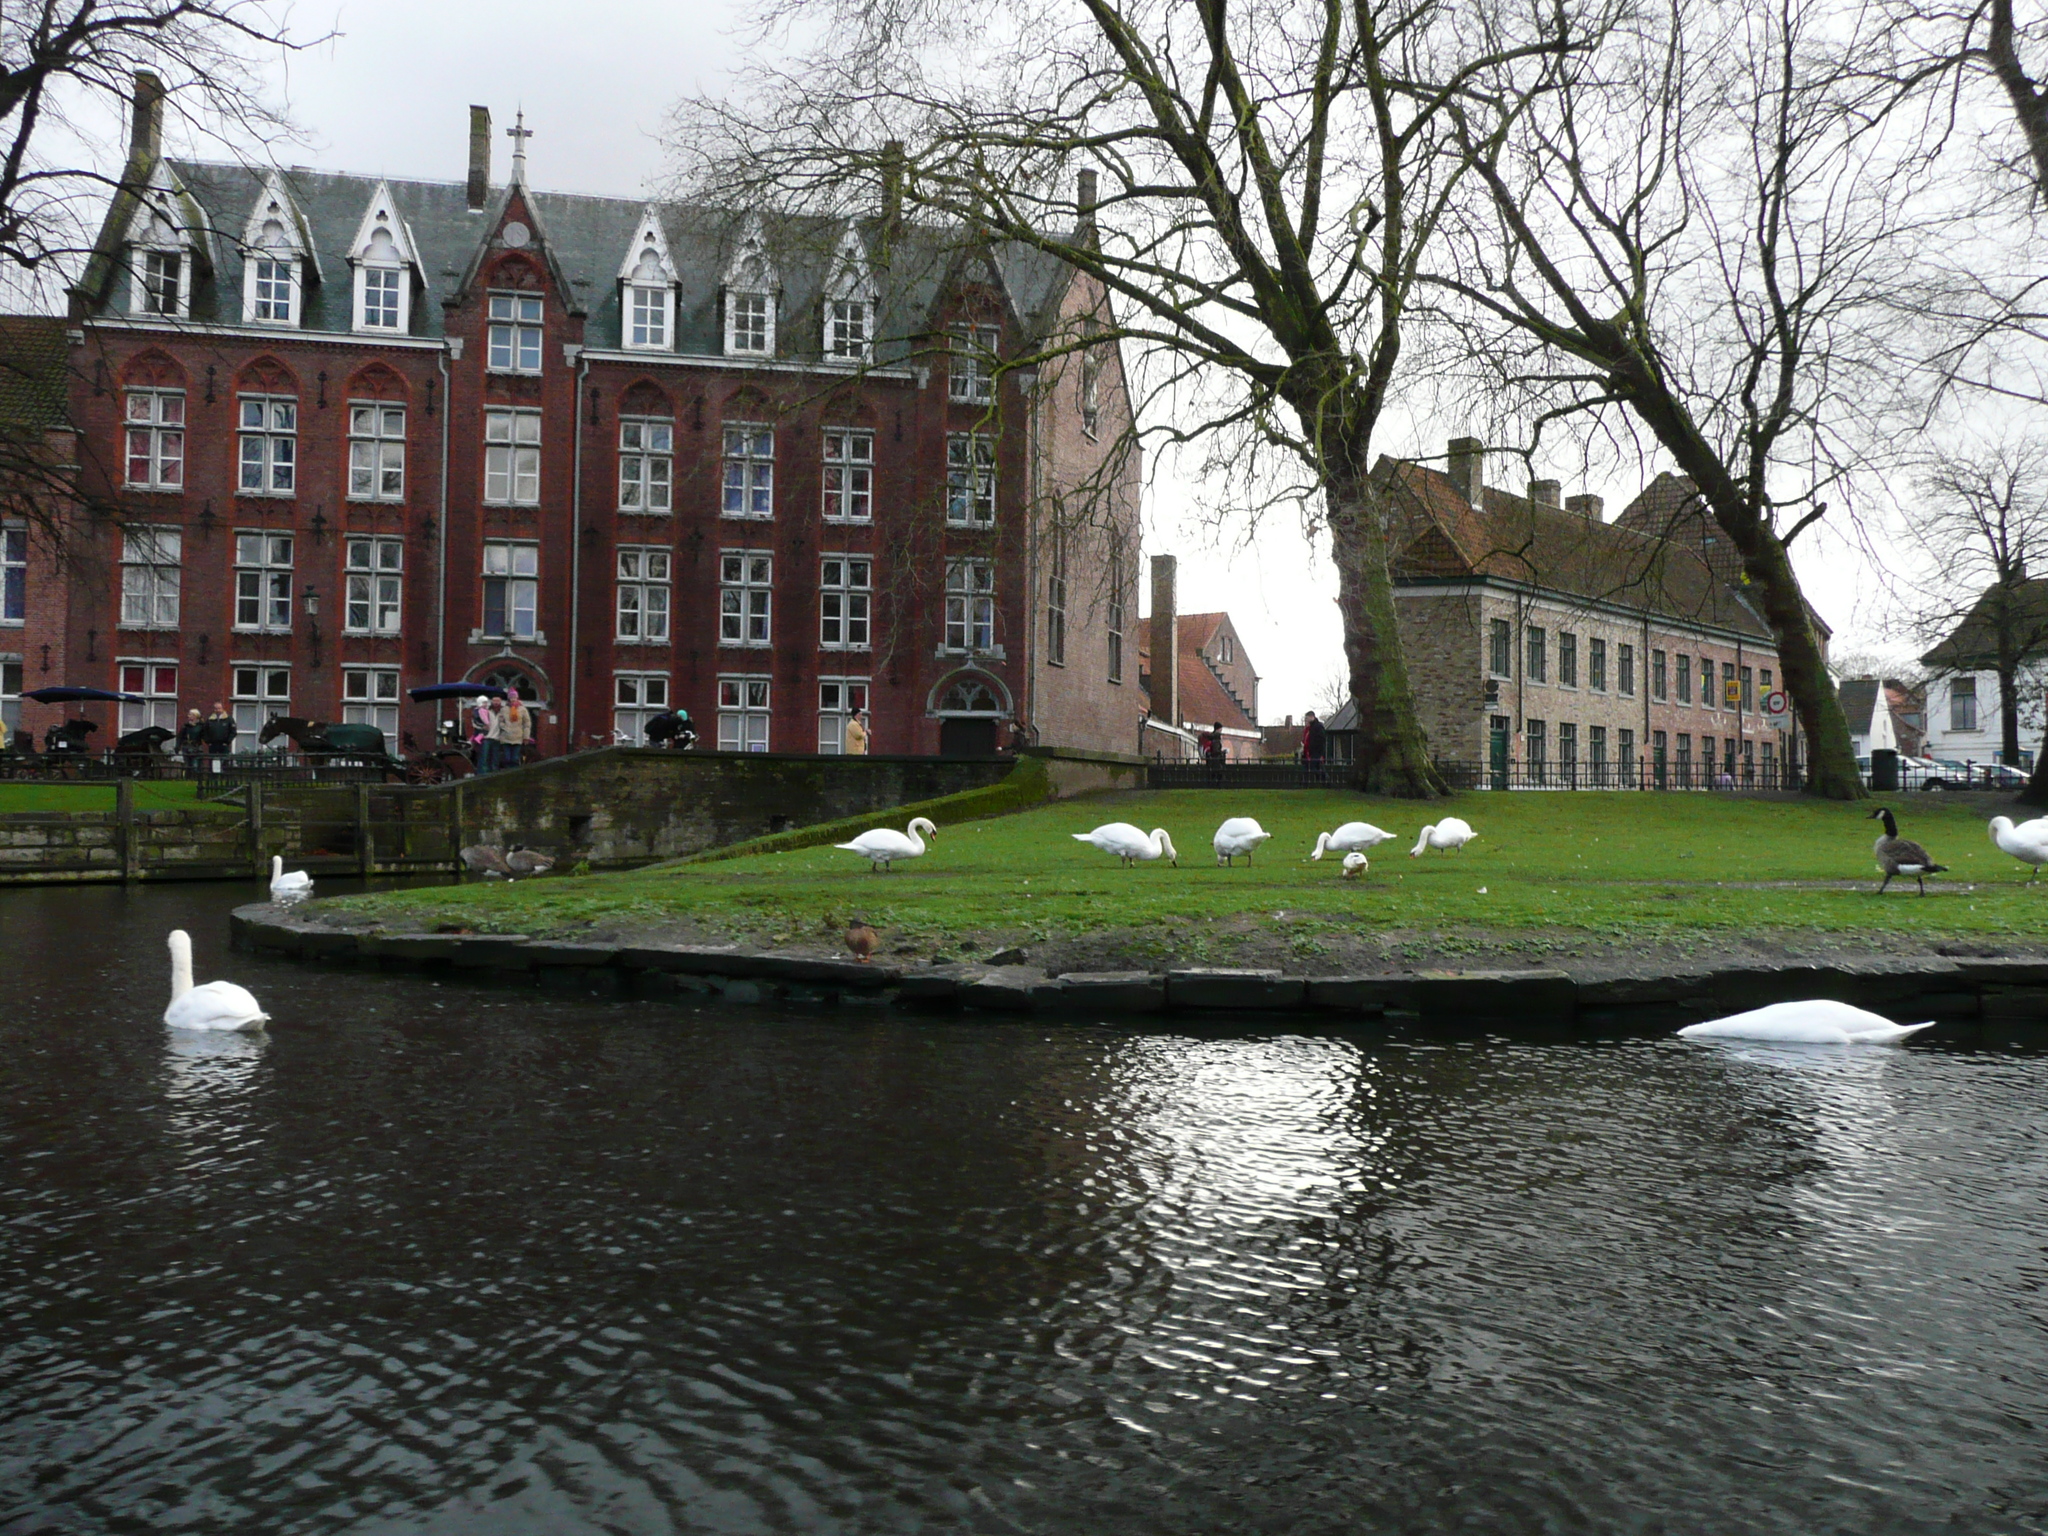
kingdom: Animalia
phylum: Chordata
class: Aves
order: Anseriformes
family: Anatidae
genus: Cygnus
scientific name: Cygnus olor
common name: Mute swan
